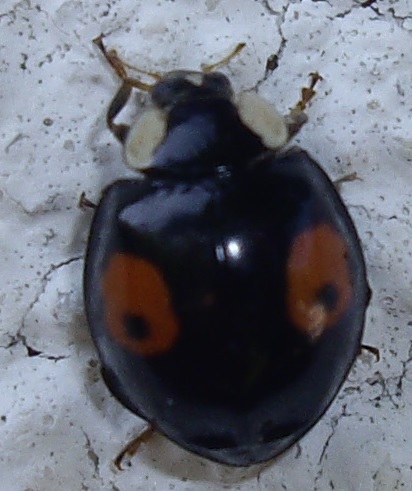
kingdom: Animalia
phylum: Arthropoda
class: Insecta
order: Coleoptera
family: Coccinellidae
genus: Harmonia
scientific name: Harmonia axyridis
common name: Harlequin ladybird
